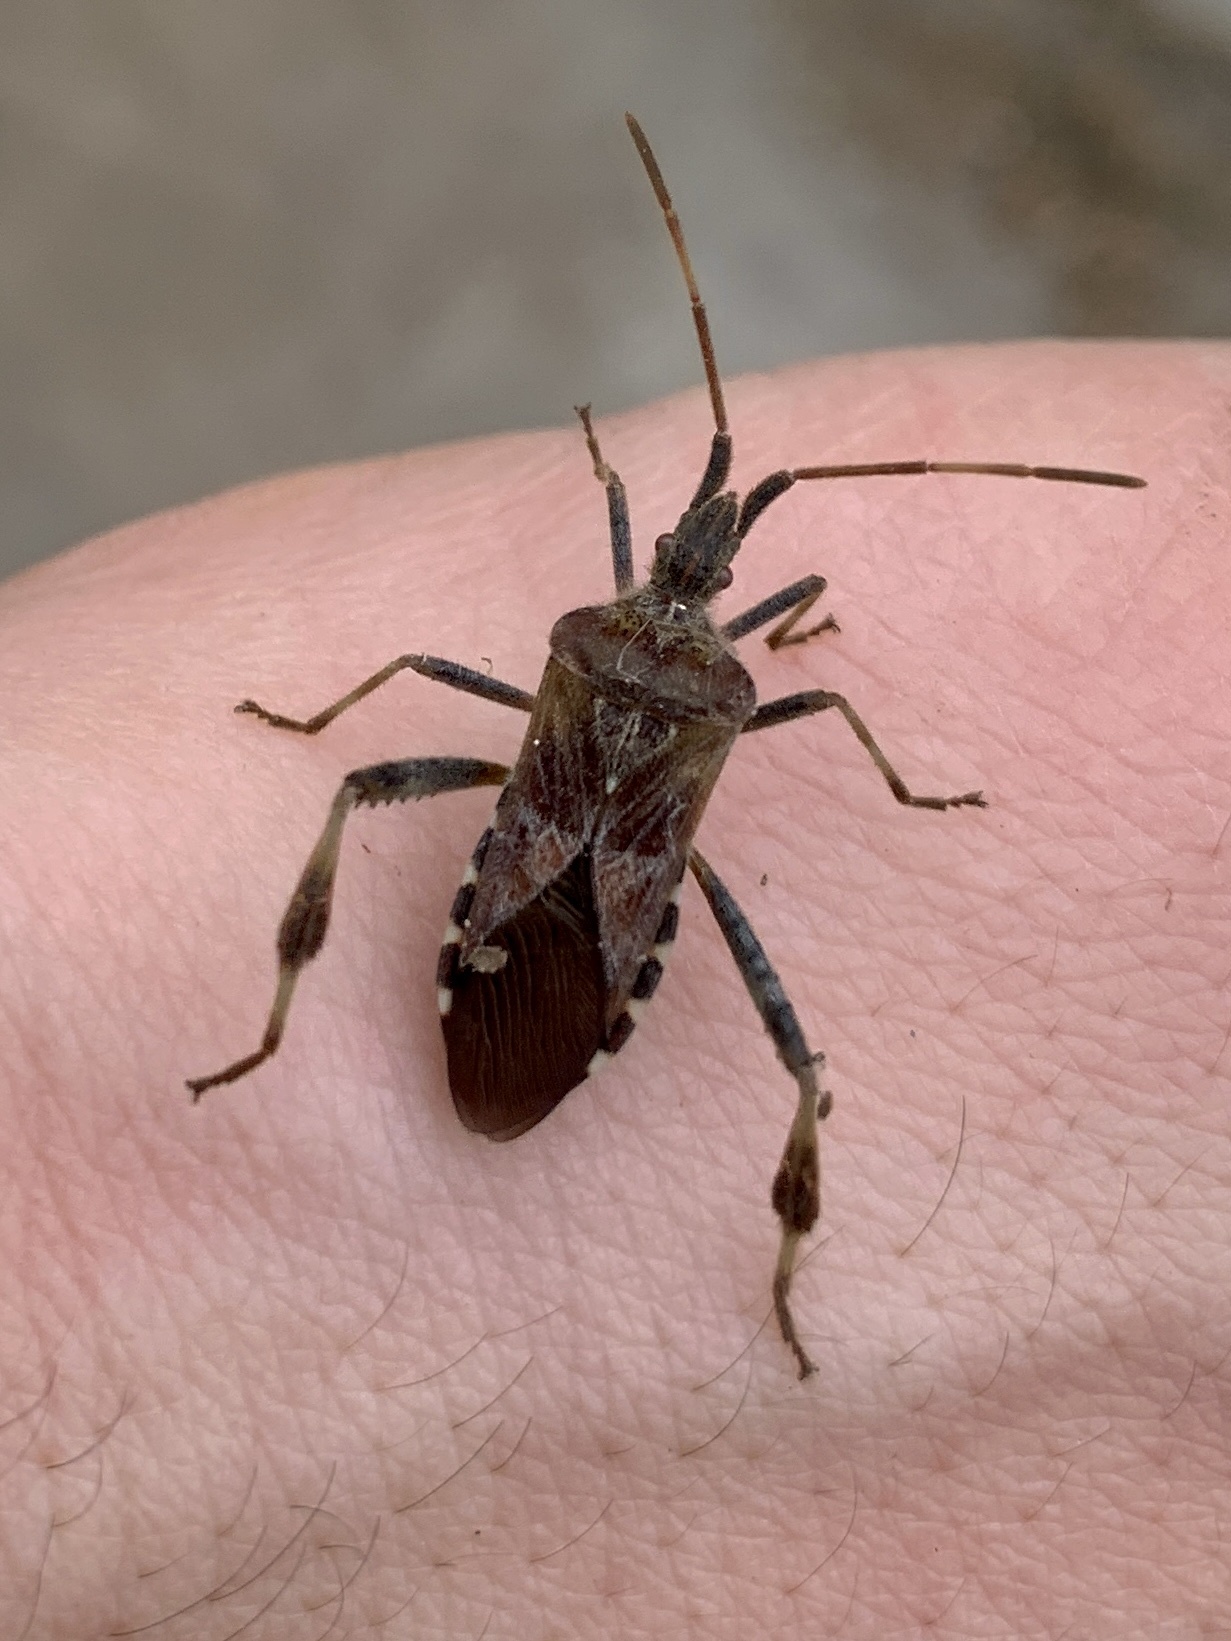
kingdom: Animalia
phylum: Arthropoda
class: Insecta
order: Hemiptera
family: Coreidae
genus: Leptoglossus
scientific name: Leptoglossus occidentalis
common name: Western conifer-seed bug
